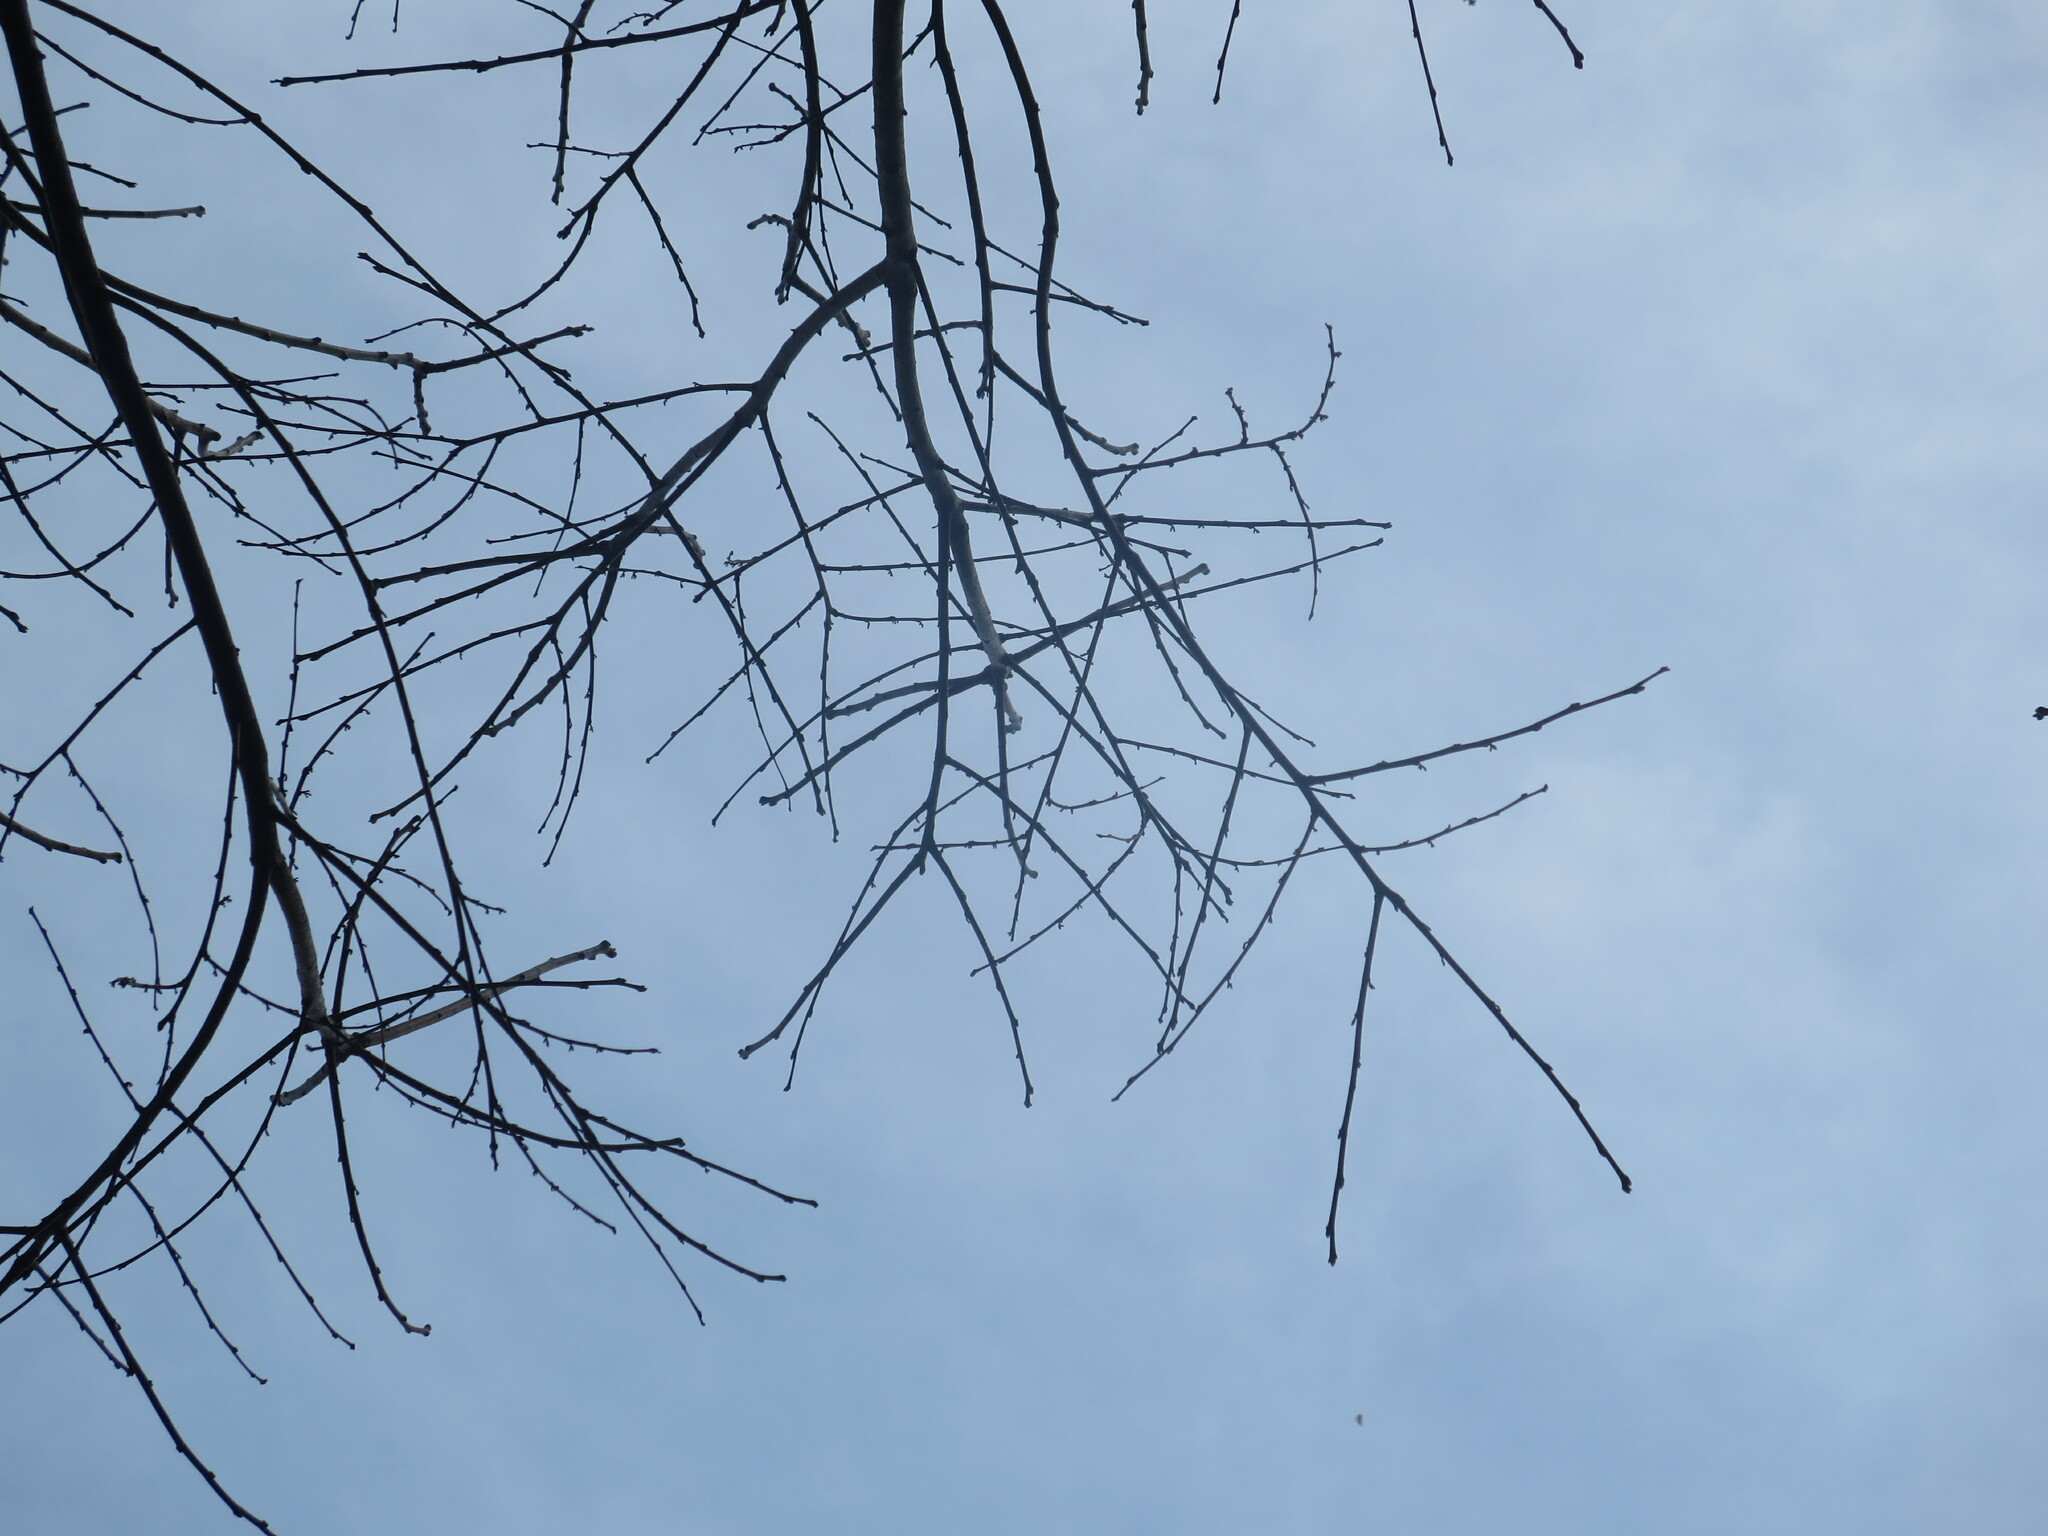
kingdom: Plantae
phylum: Tracheophyta
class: Magnoliopsida
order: Ericales
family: Ebenaceae
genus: Diospyros
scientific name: Diospyros virginiana
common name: Persimmon
